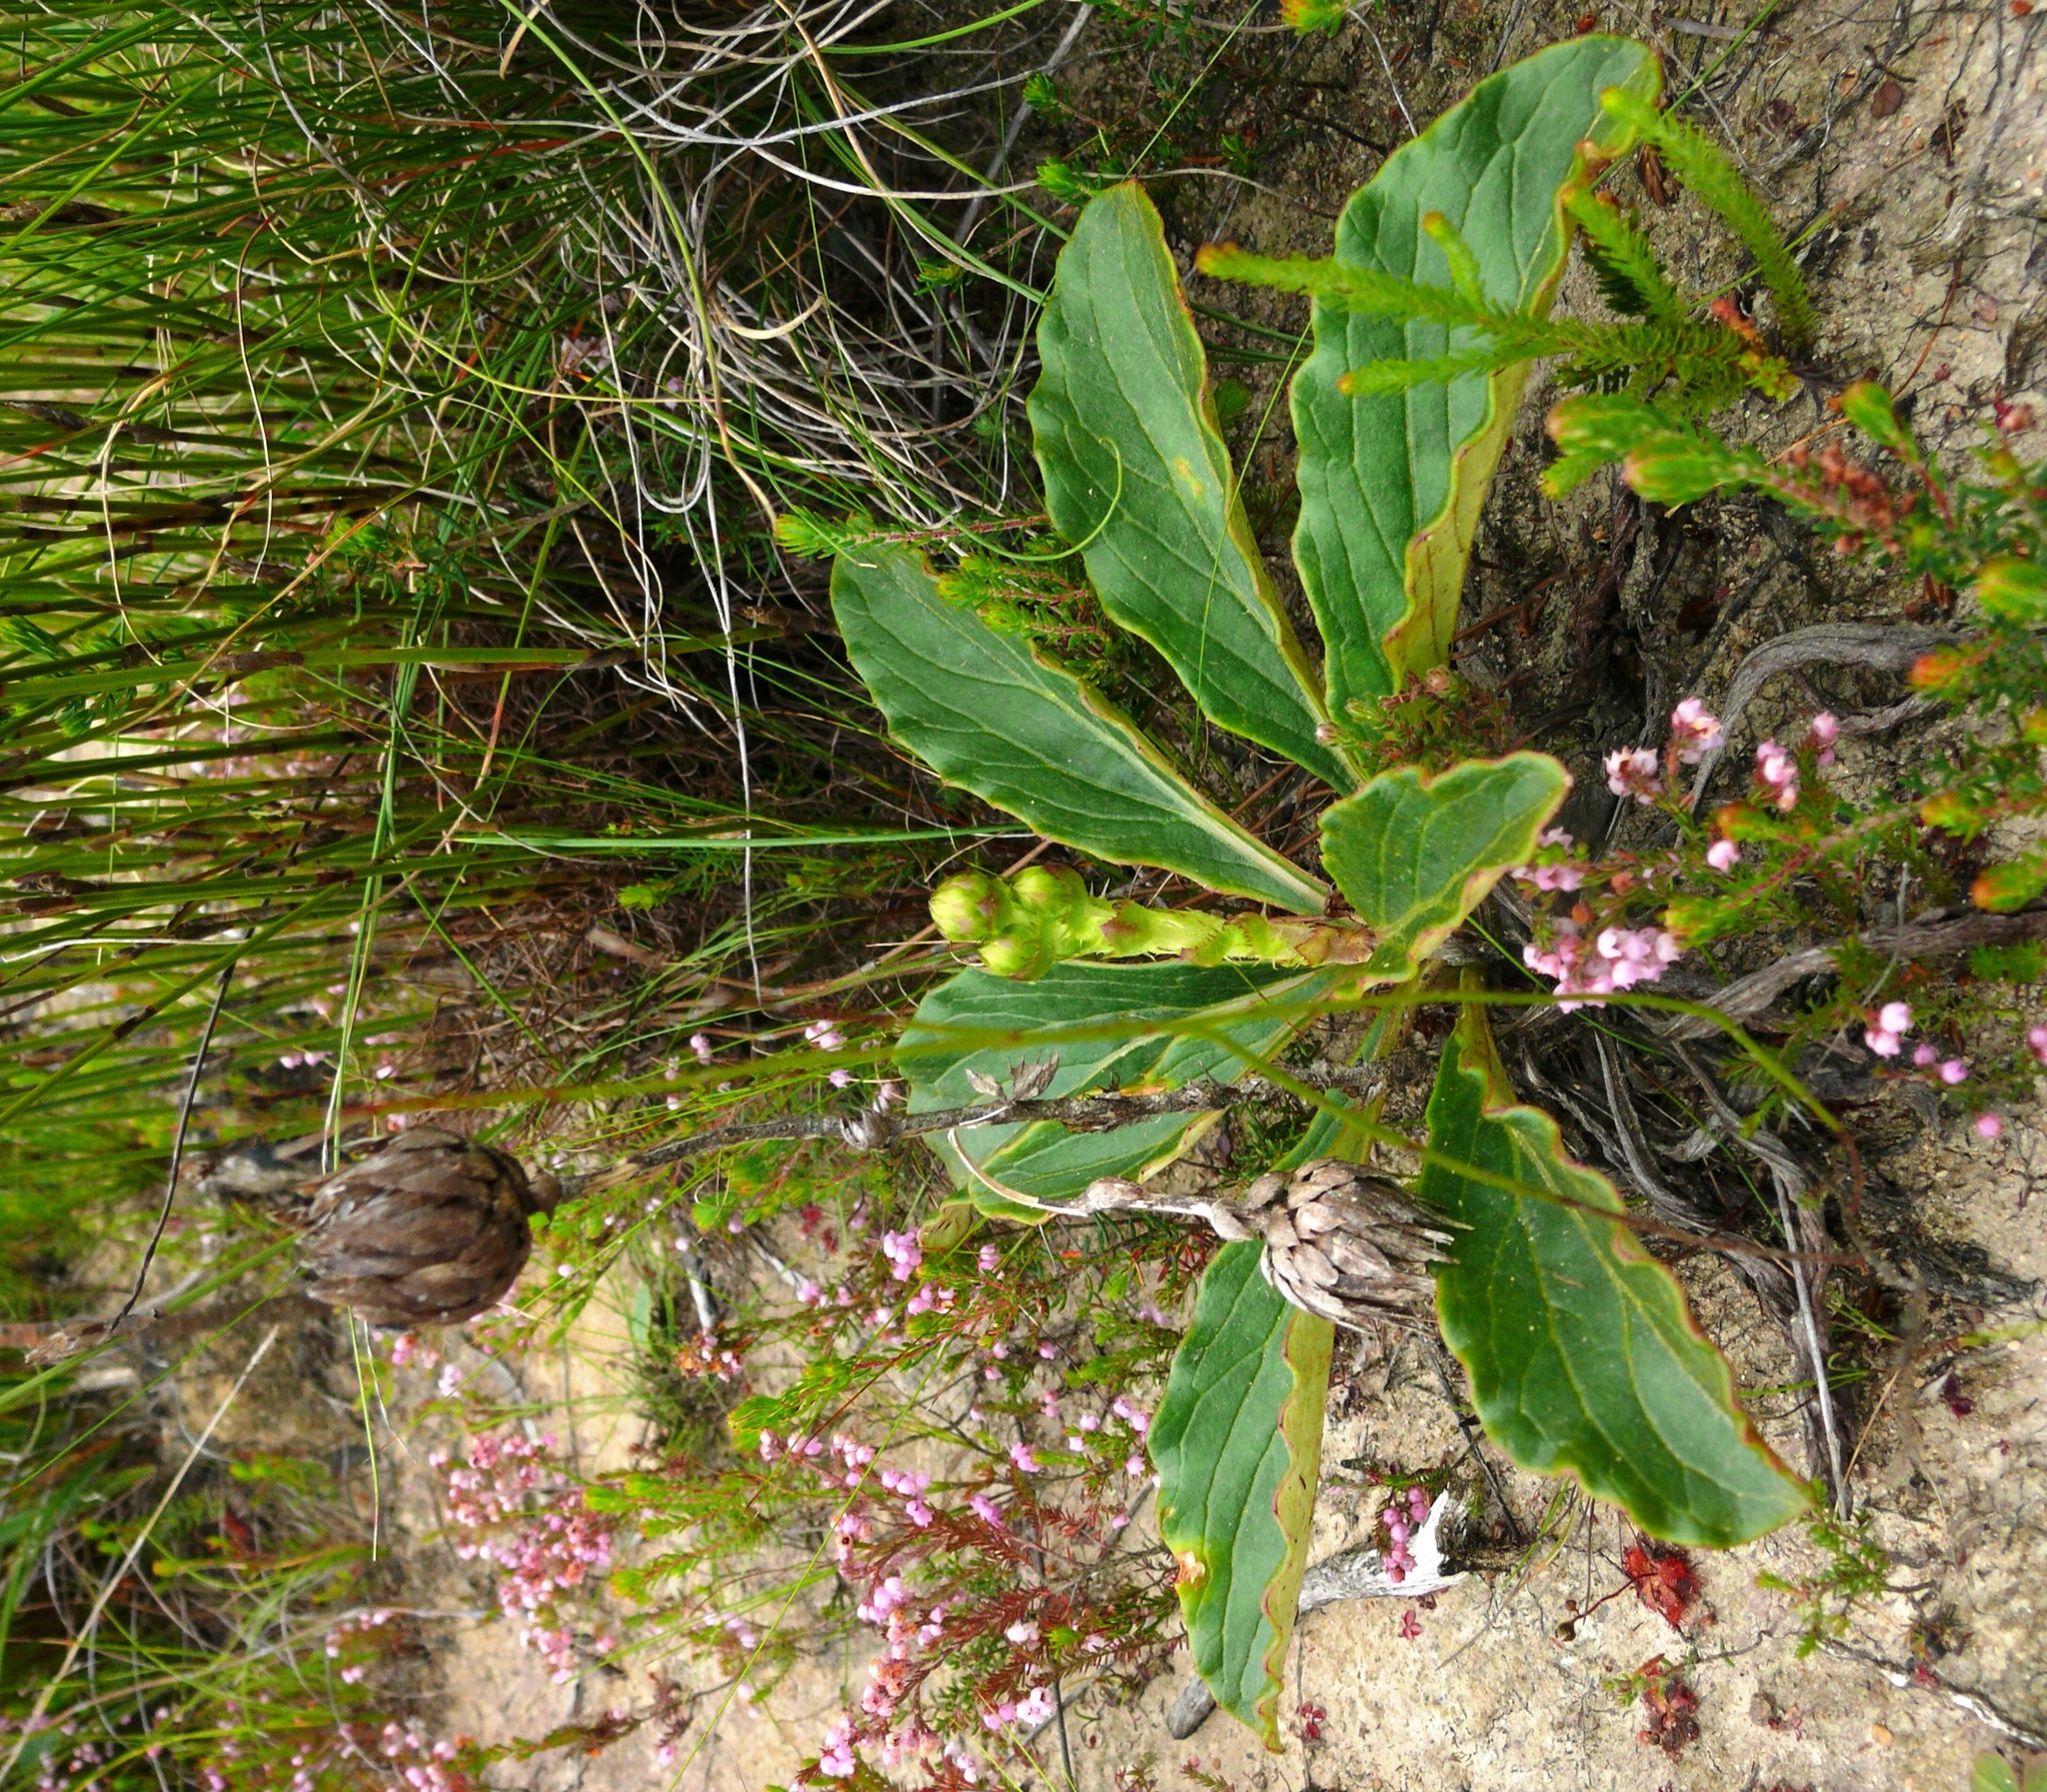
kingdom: Plantae
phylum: Tracheophyta
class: Magnoliopsida
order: Asterales
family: Asteraceae
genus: Berkheya
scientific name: Berkheya herbacea
